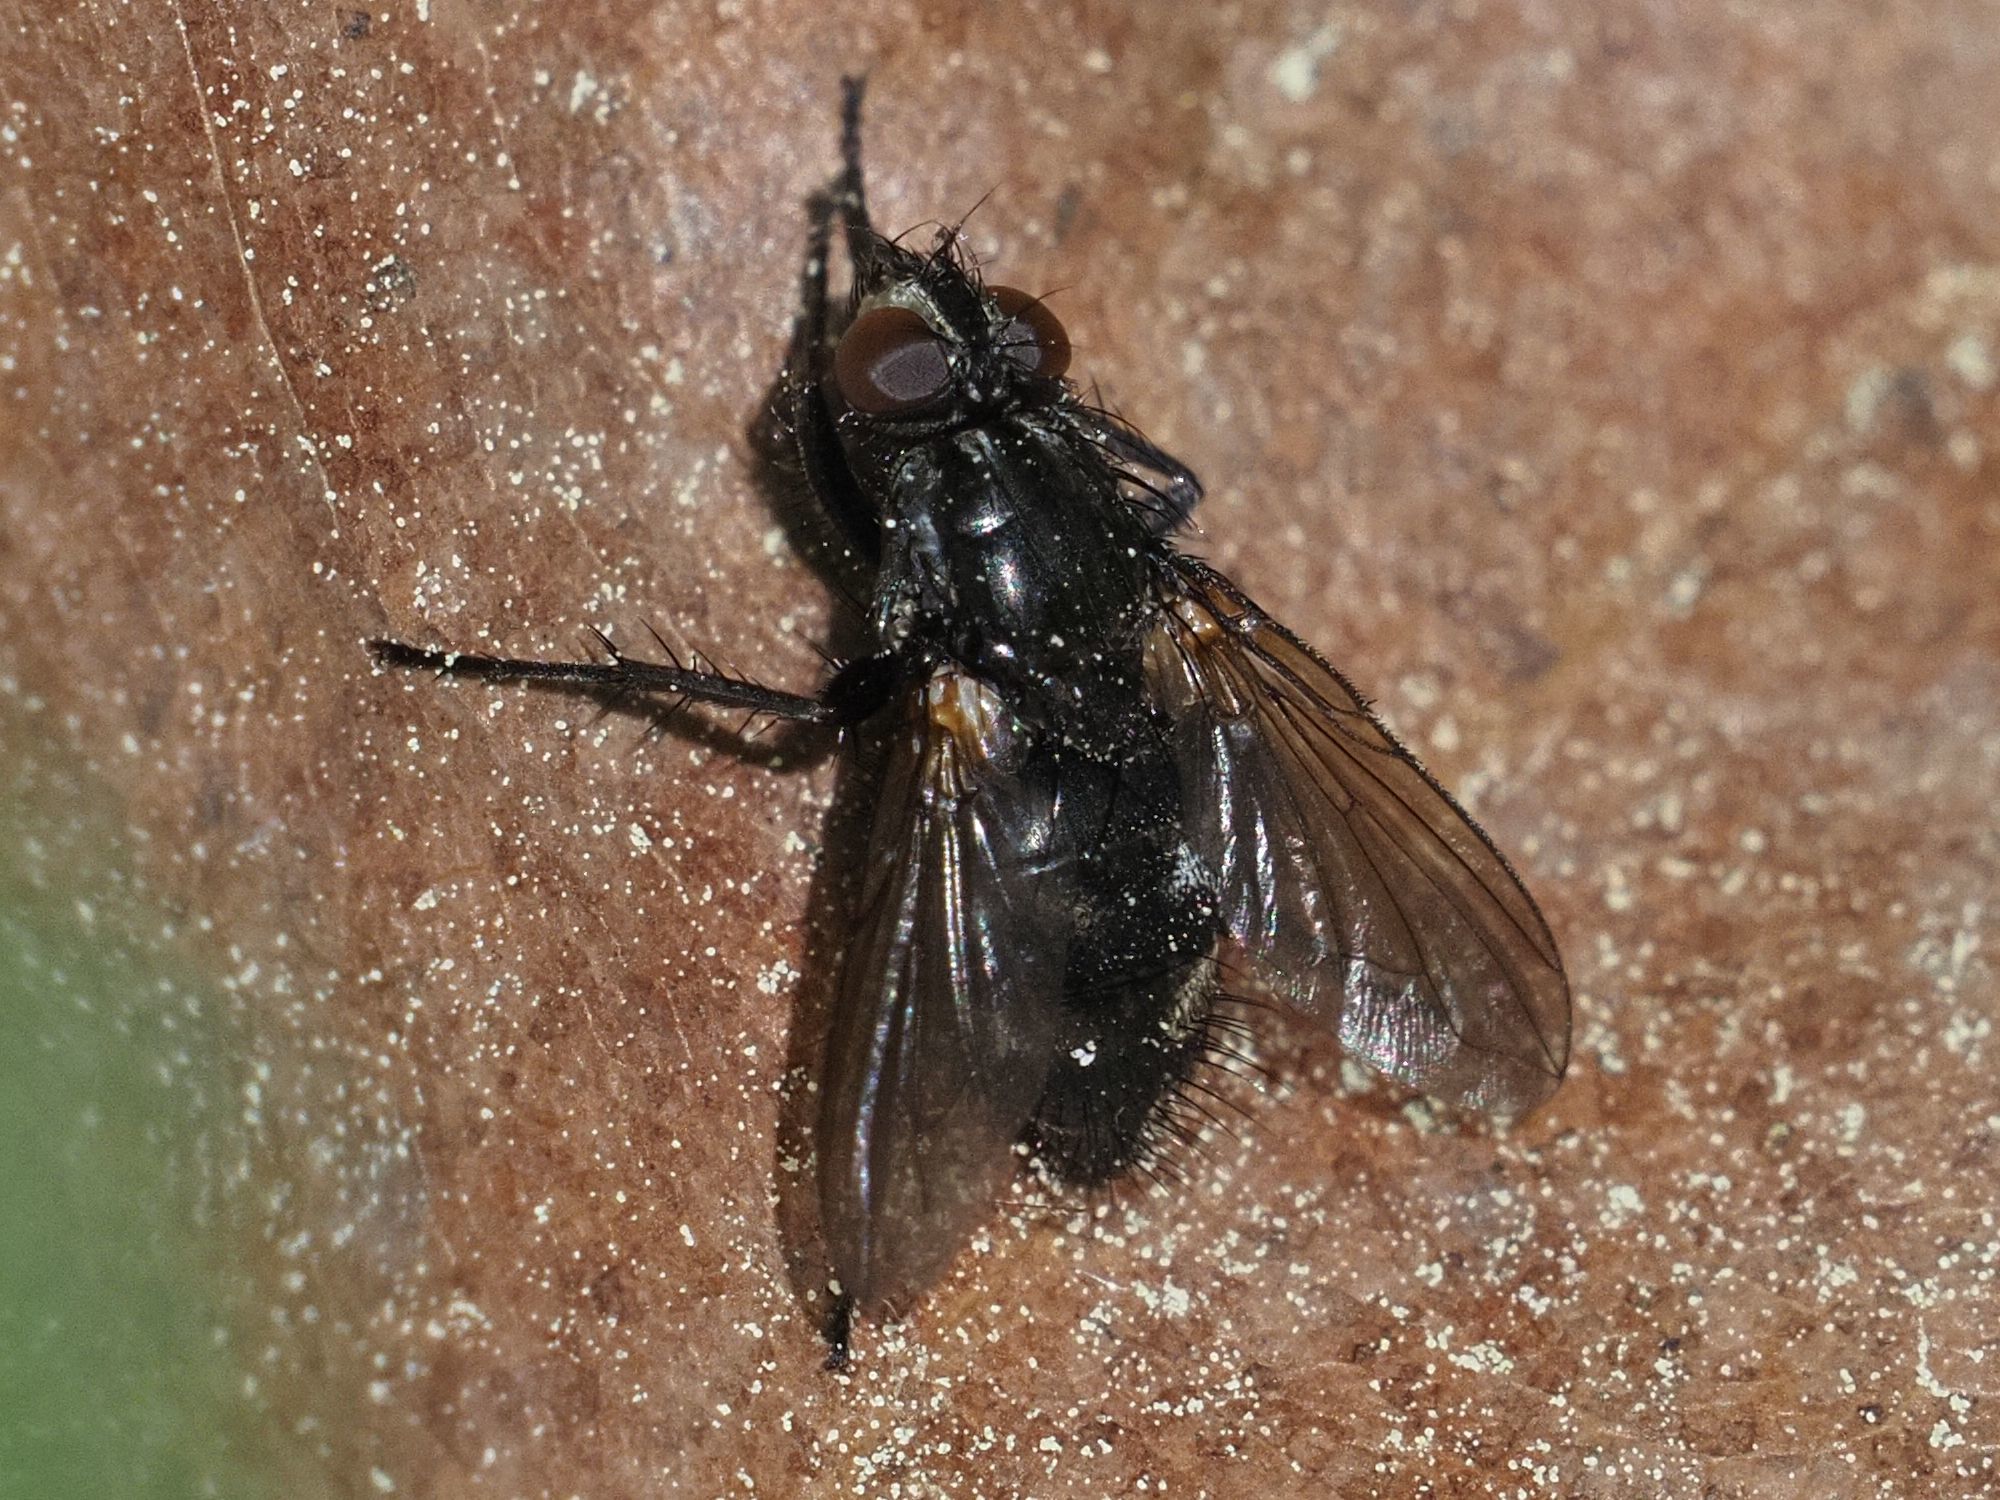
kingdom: Animalia
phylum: Arthropoda
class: Insecta
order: Diptera
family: Calliphoridae
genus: Rhinomorinia
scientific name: Rhinomorinia sarcophagina
